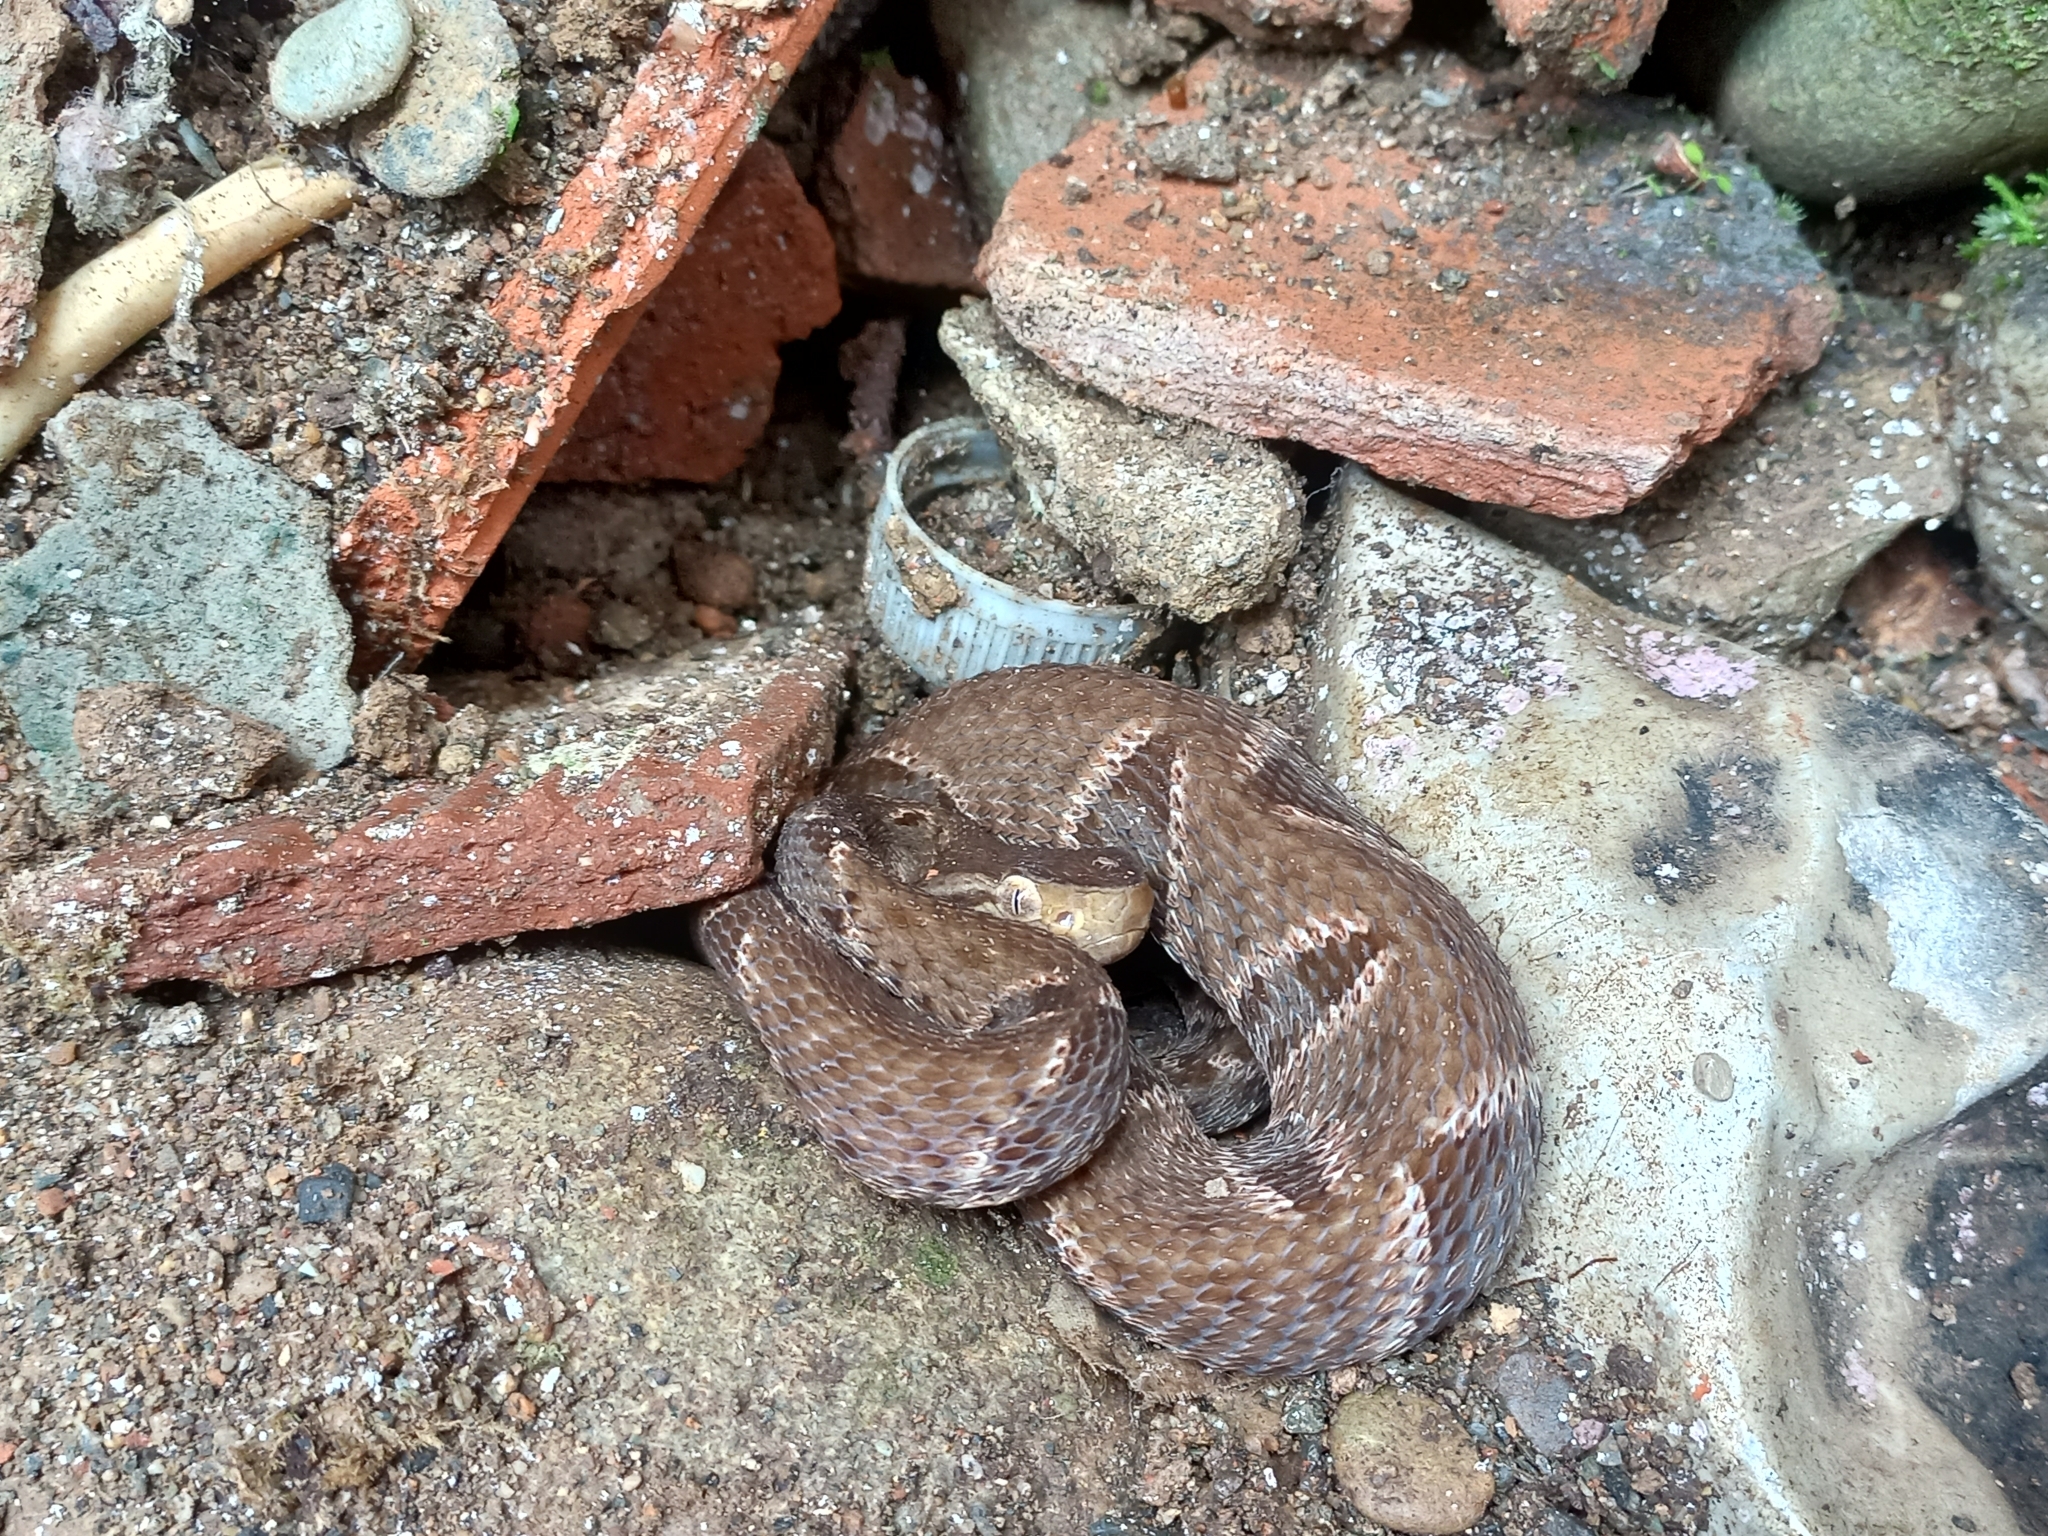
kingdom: Animalia
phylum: Chordata
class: Squamata
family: Viperidae
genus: Bothrops
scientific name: Bothrops asper
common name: Terciopelo
